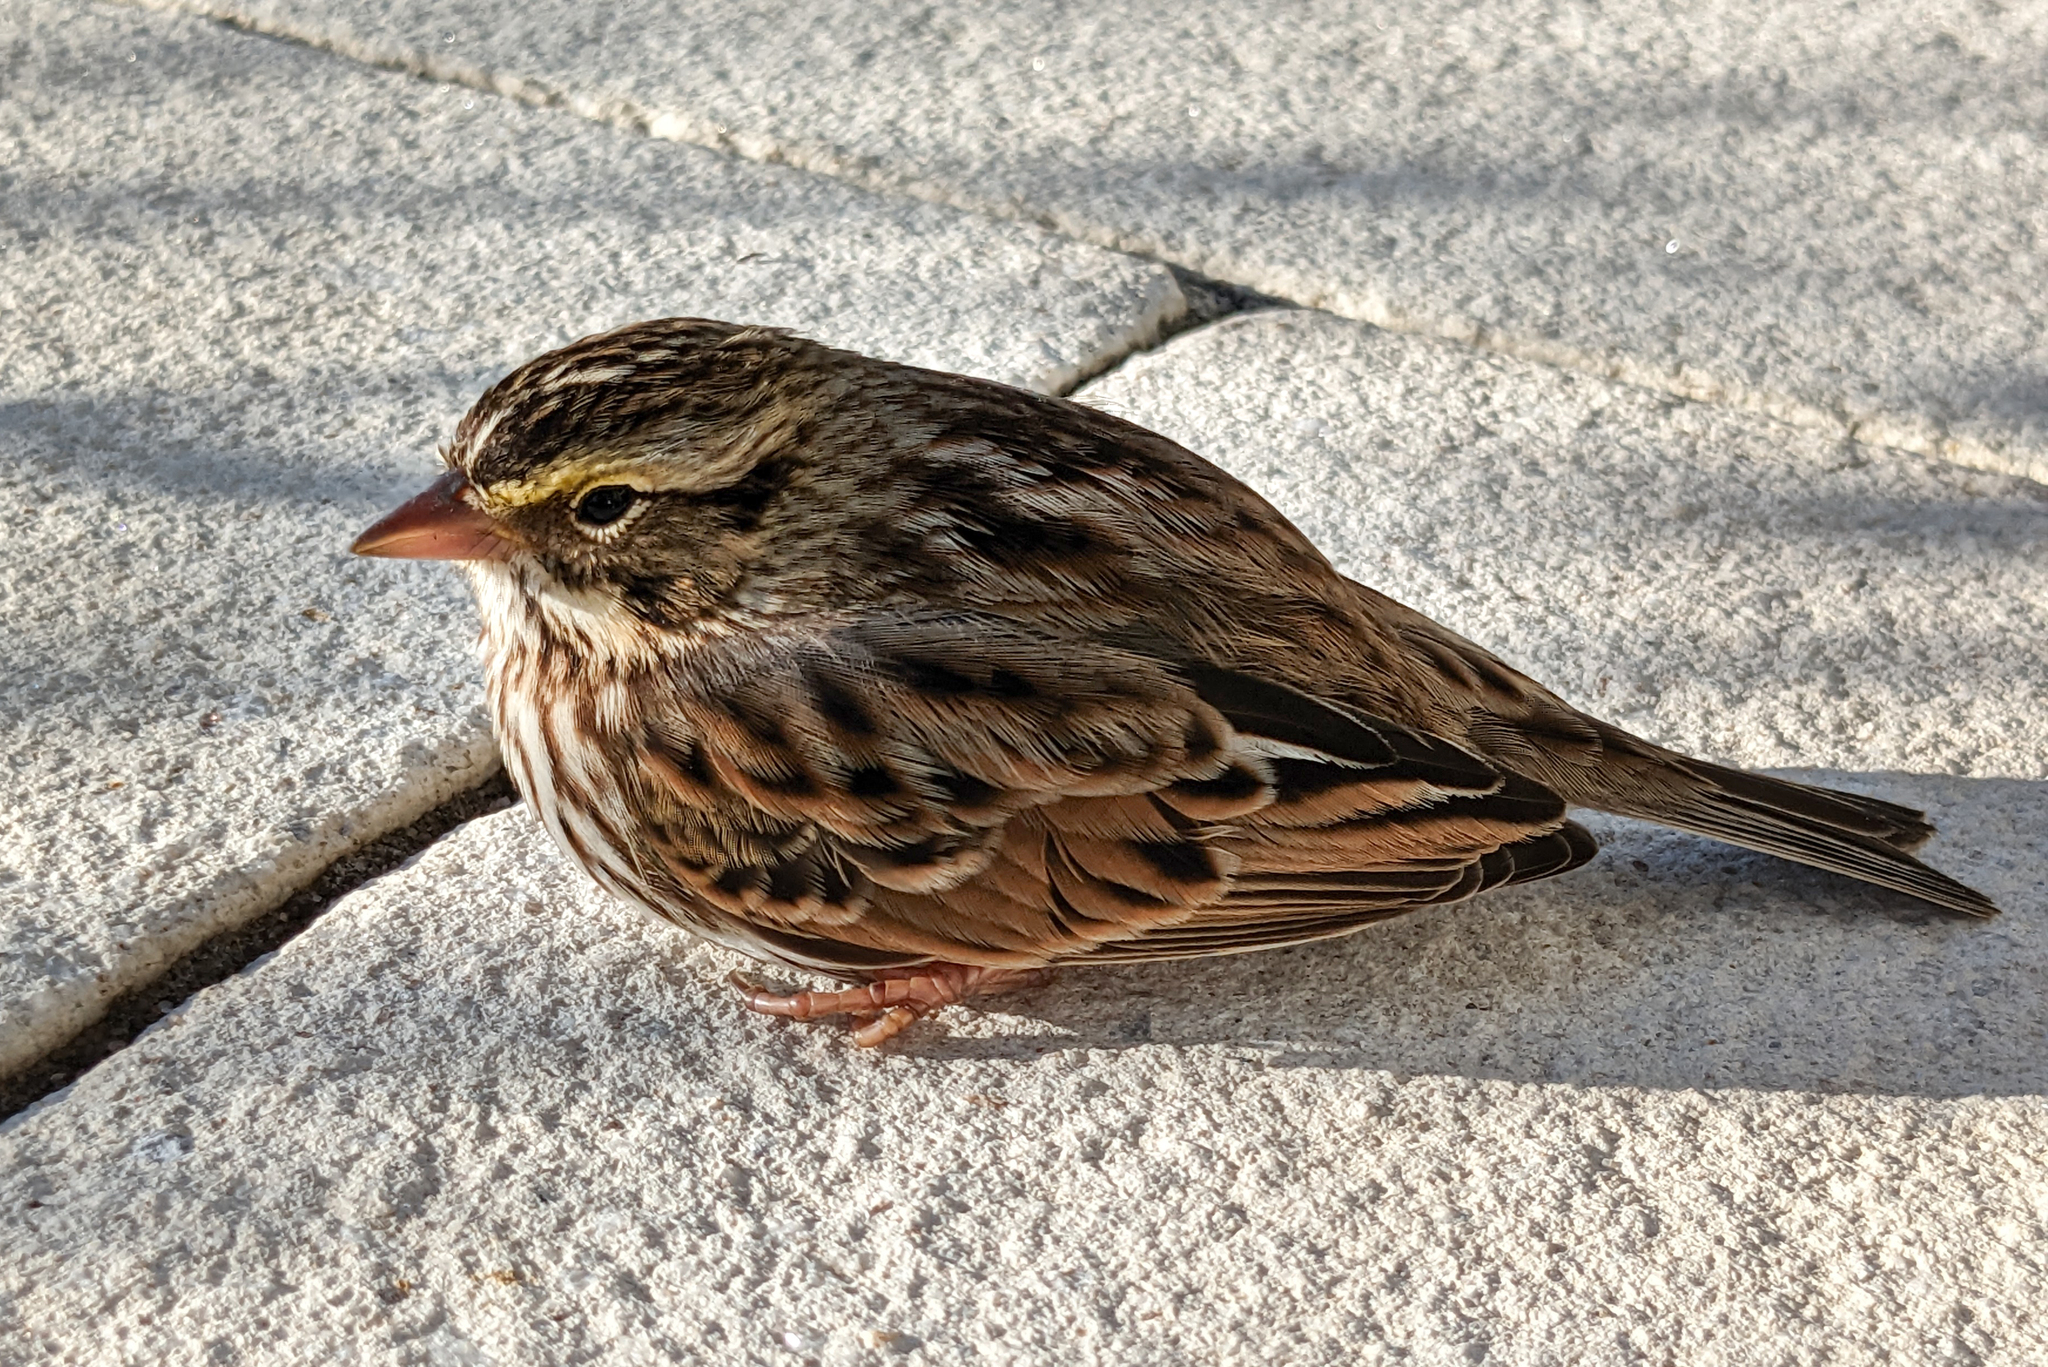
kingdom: Animalia
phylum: Chordata
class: Aves
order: Passeriformes
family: Passerellidae
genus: Passerculus
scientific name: Passerculus sandwichensis
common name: Savannah sparrow
